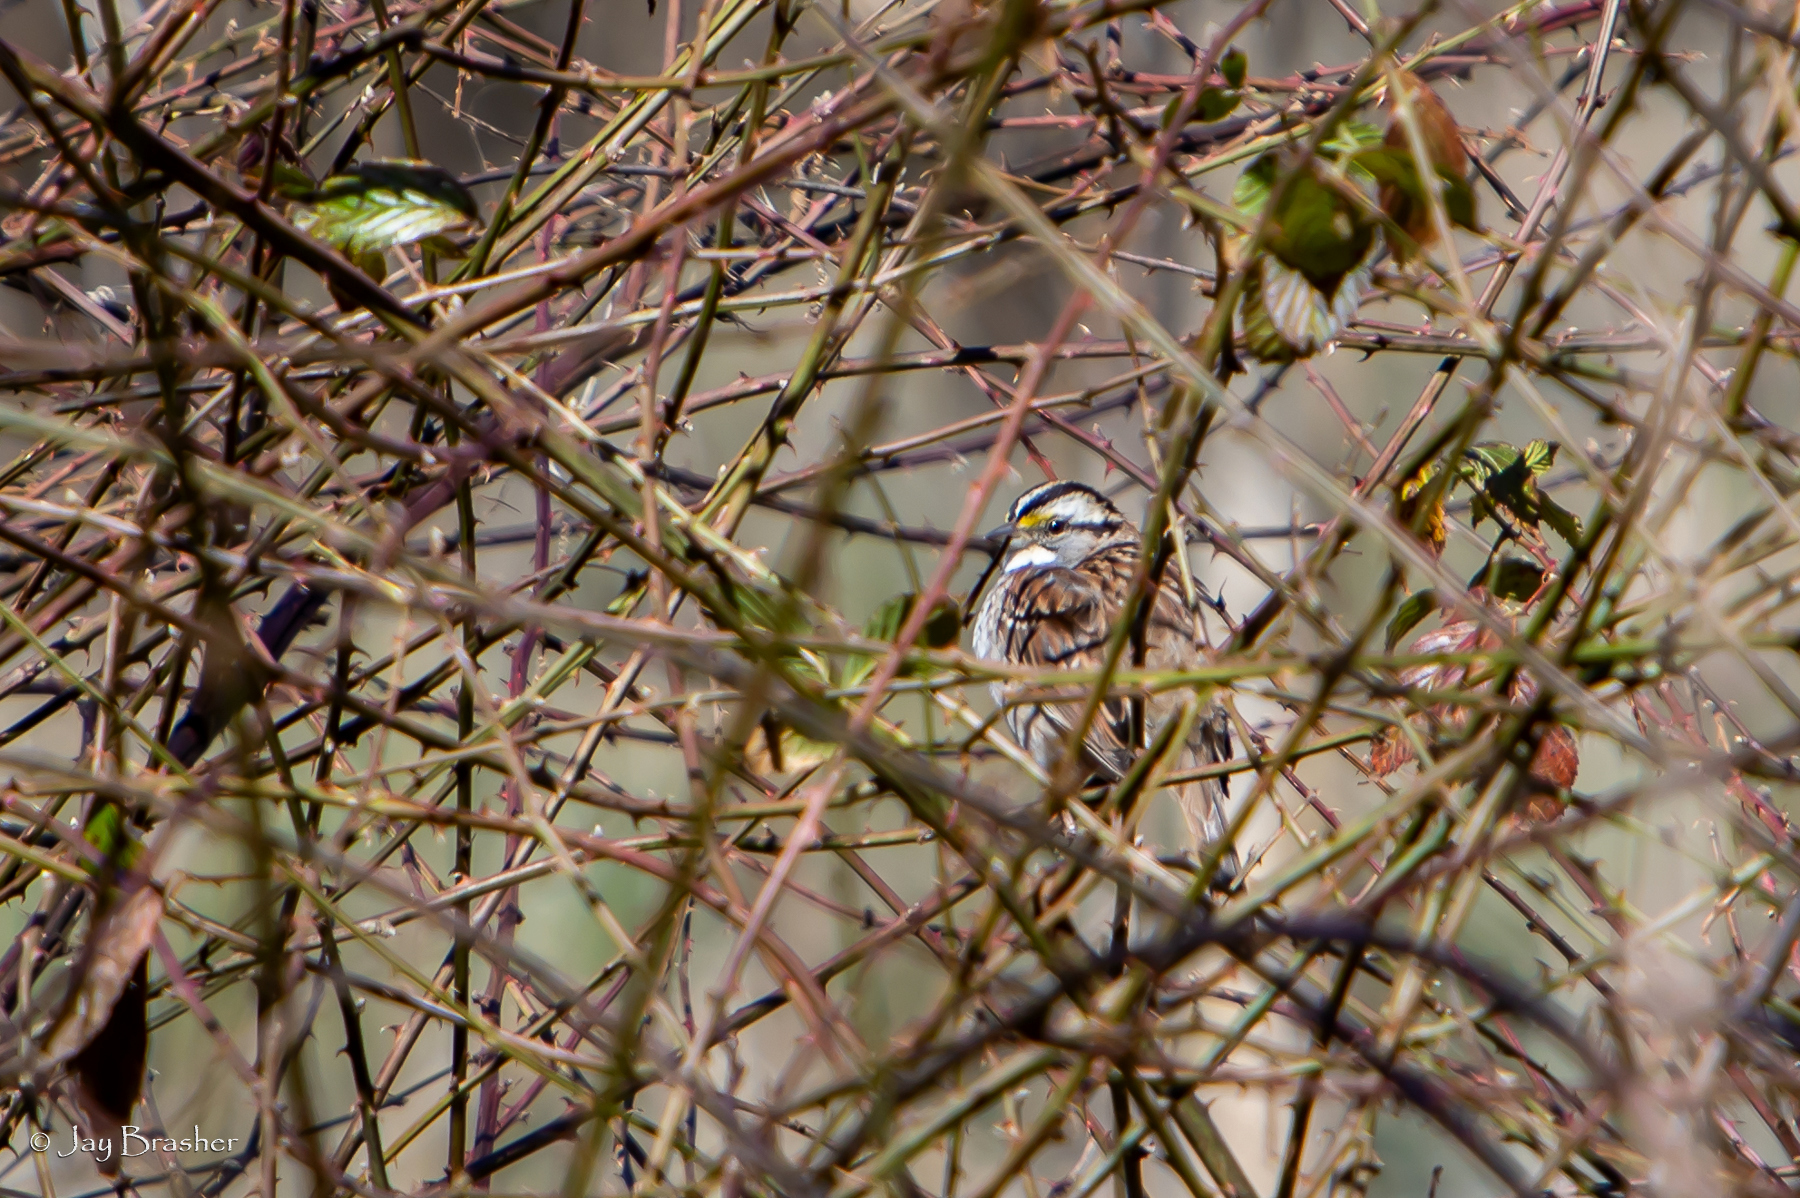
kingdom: Animalia
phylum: Chordata
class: Aves
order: Passeriformes
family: Passerellidae
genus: Zonotrichia
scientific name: Zonotrichia albicollis
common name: White-throated sparrow
